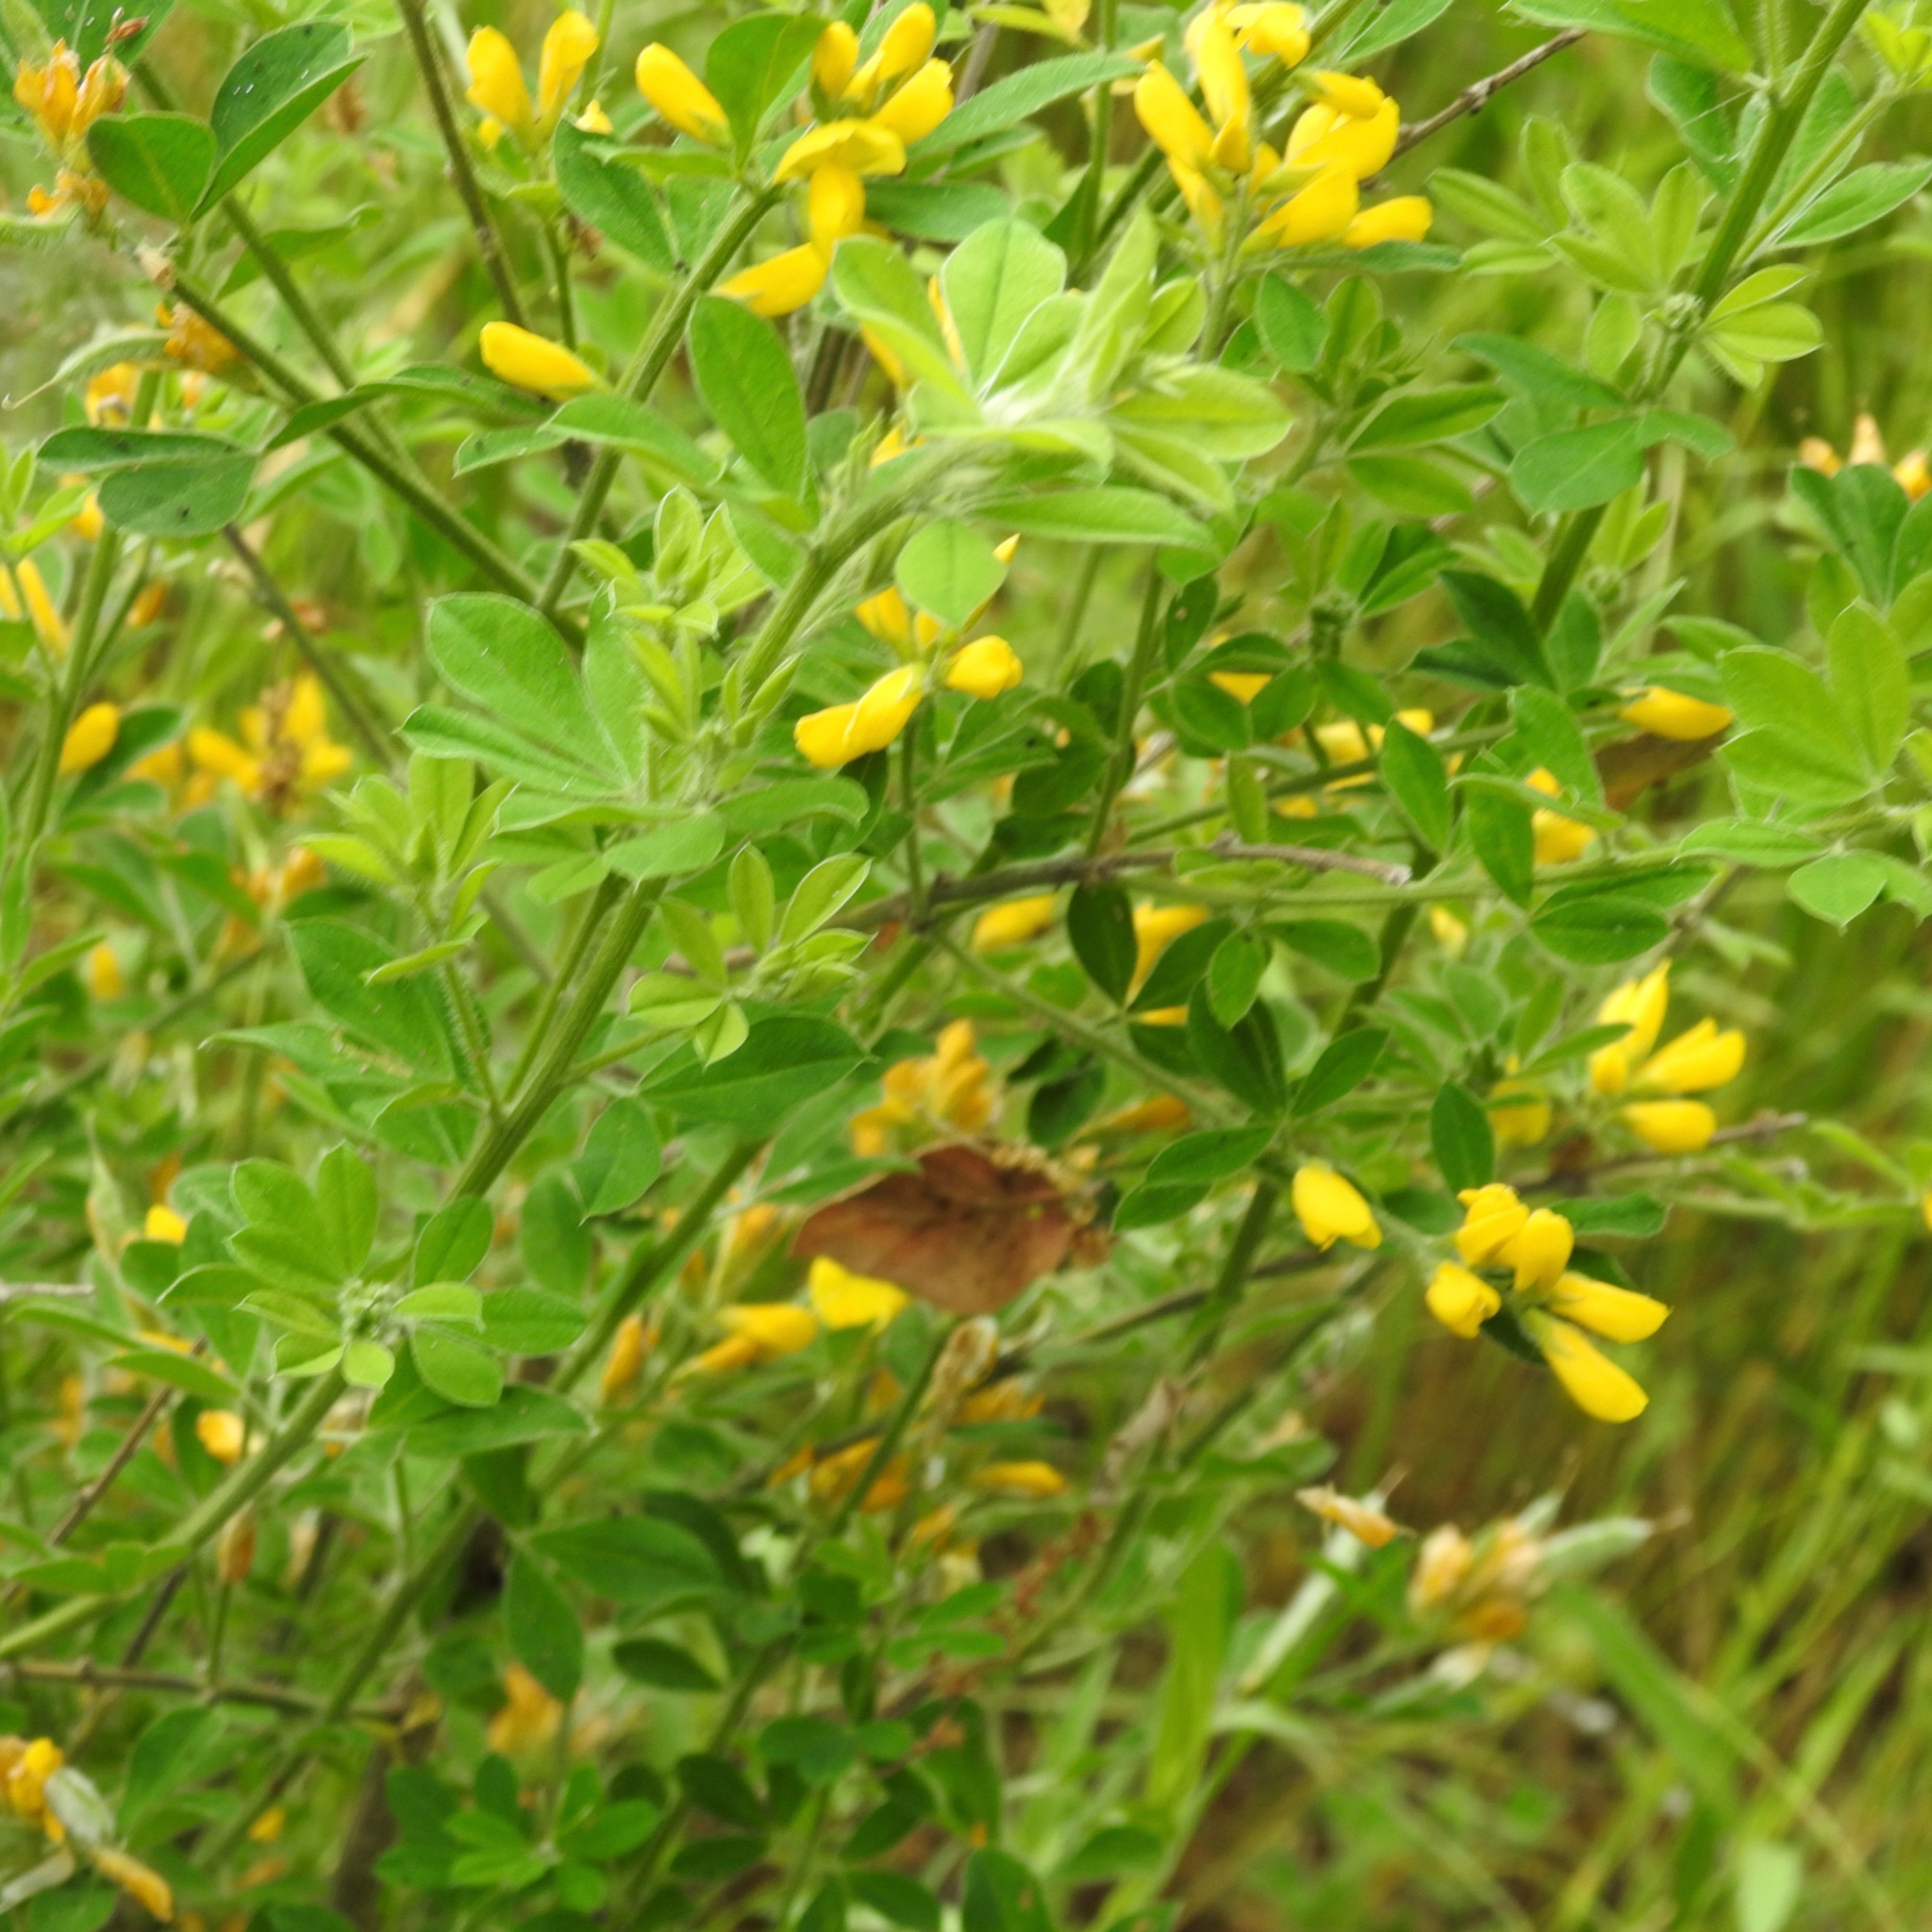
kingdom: Plantae
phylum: Tracheophyta
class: Magnoliopsida
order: Fabales
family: Fabaceae
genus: Genista
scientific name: Genista monspessulana
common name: Montpellier broom
